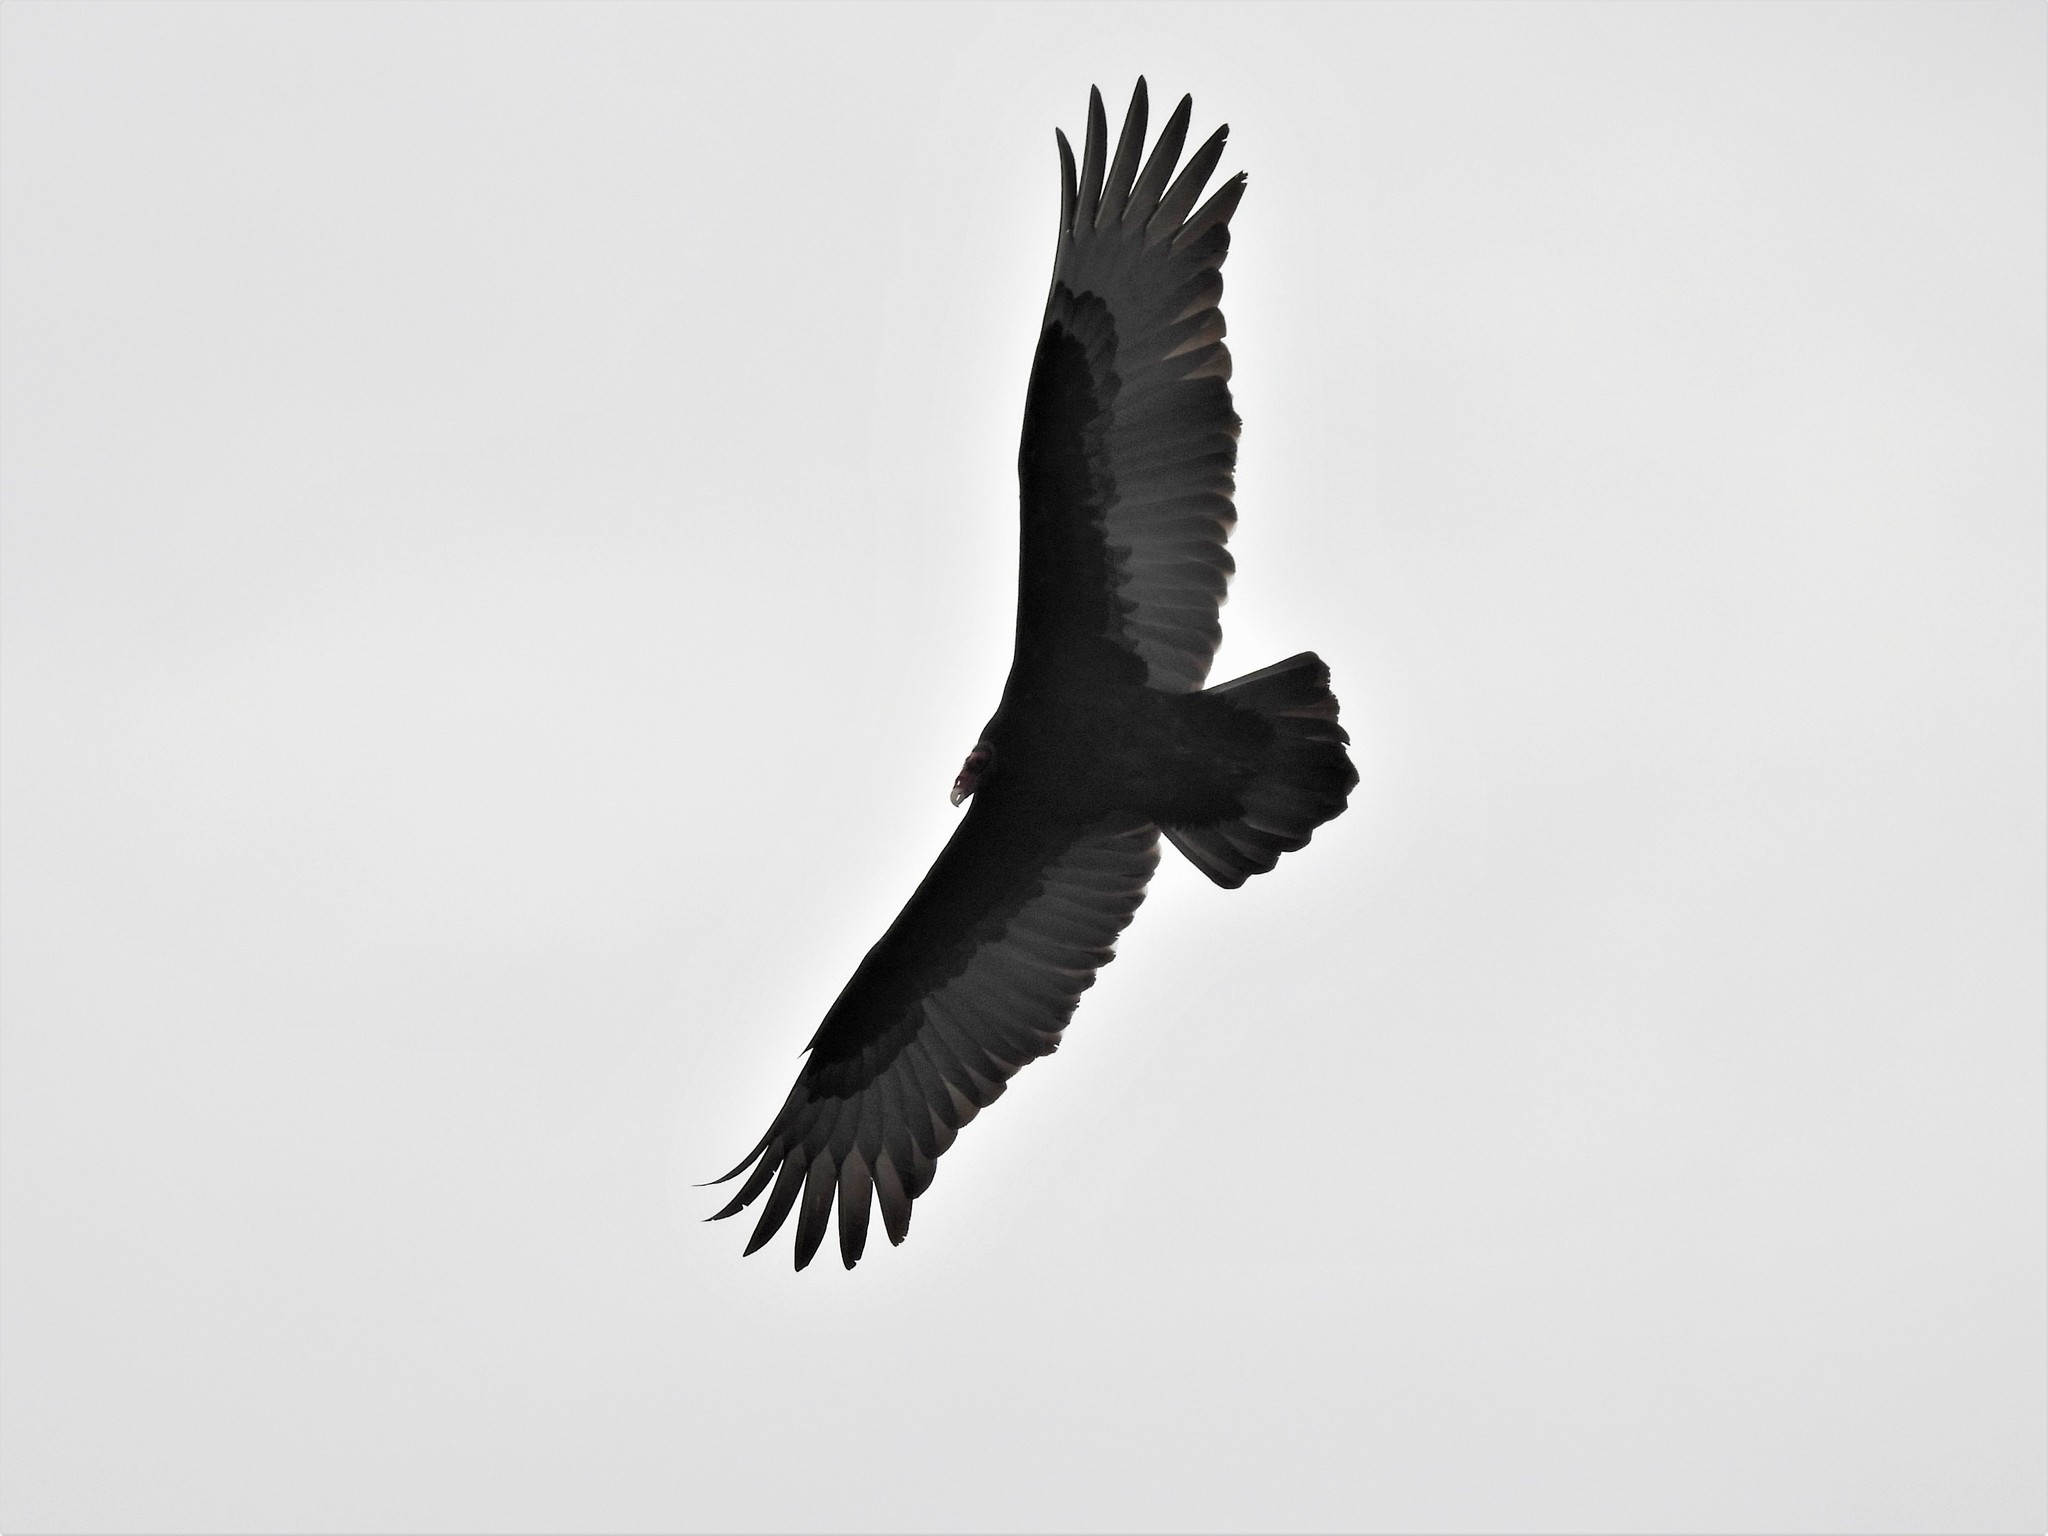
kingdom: Animalia
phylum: Chordata
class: Aves
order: Accipitriformes
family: Cathartidae
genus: Cathartes
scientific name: Cathartes aura
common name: Turkey vulture
